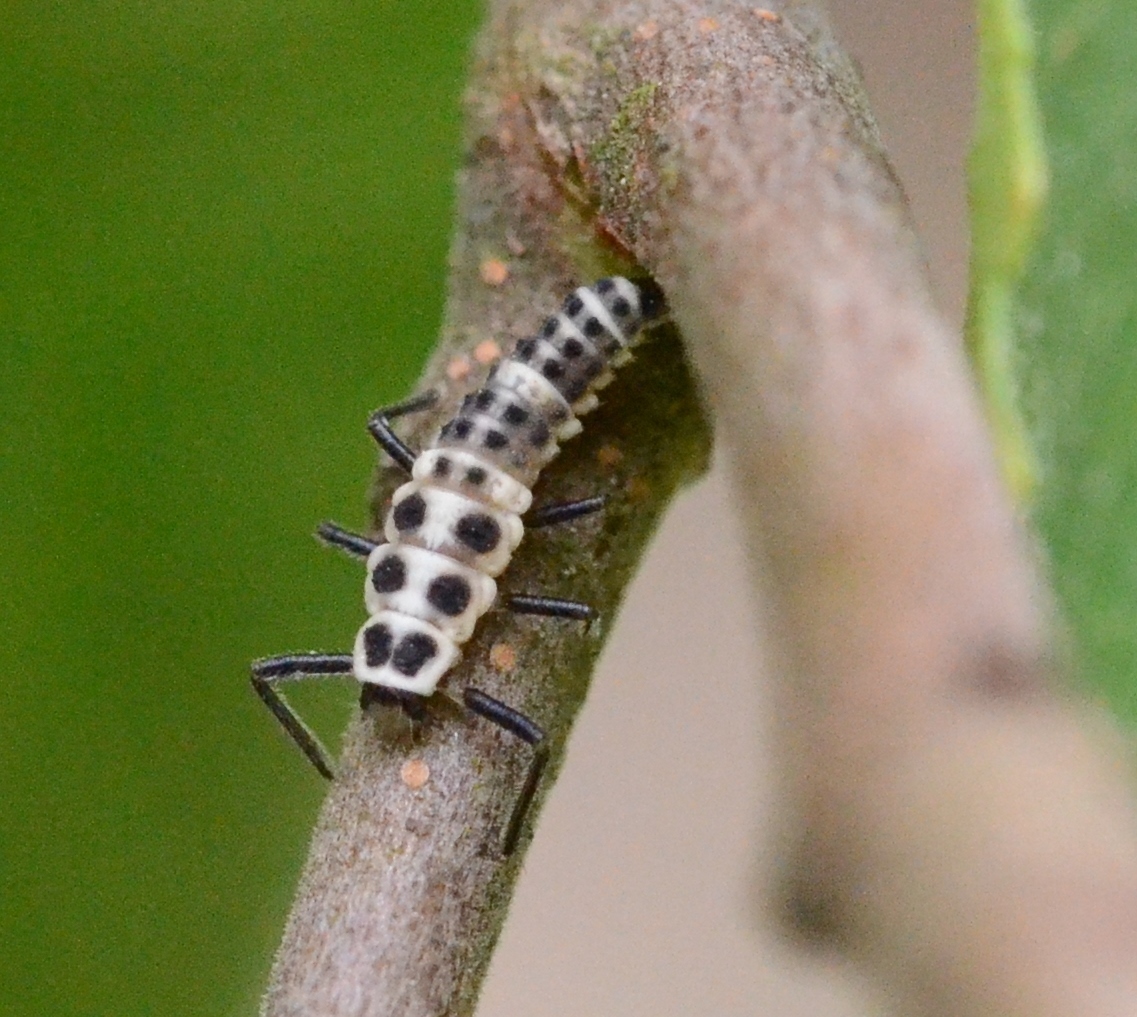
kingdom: Animalia
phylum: Arthropoda
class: Insecta
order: Coleoptera
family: Coccinellidae
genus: Calvia
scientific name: Calvia decemguttata
